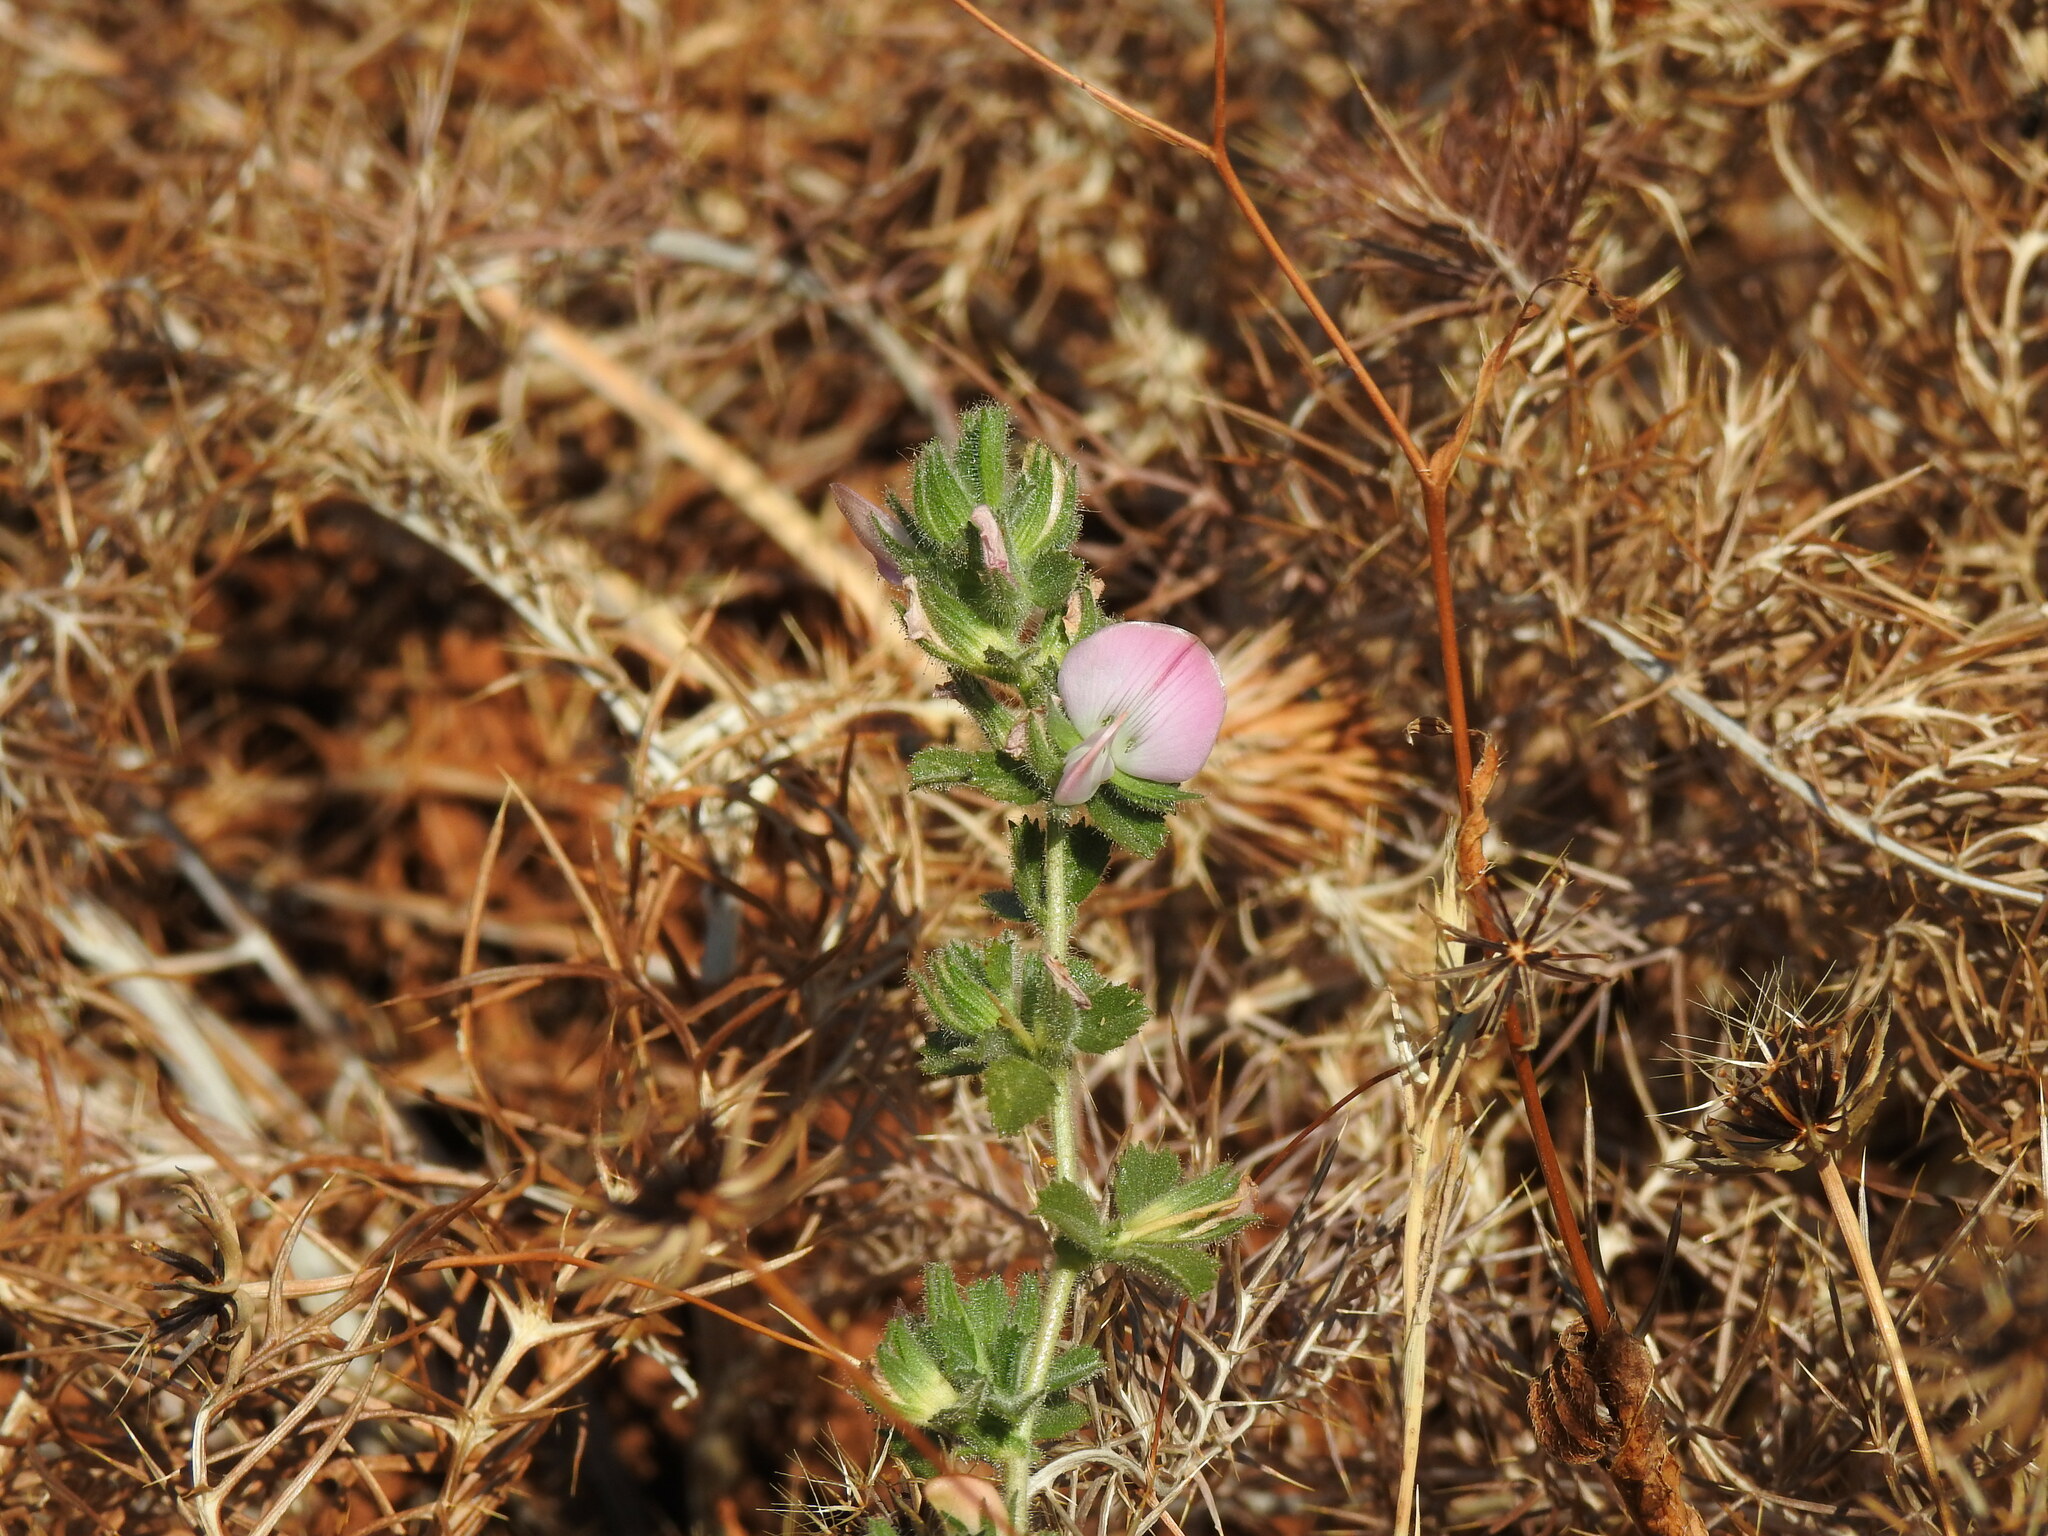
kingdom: Plantae
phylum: Tracheophyta
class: Magnoliopsida
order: Fabales
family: Fabaceae
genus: Ononis
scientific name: Ononis spinosa
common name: Spiny restharrow
